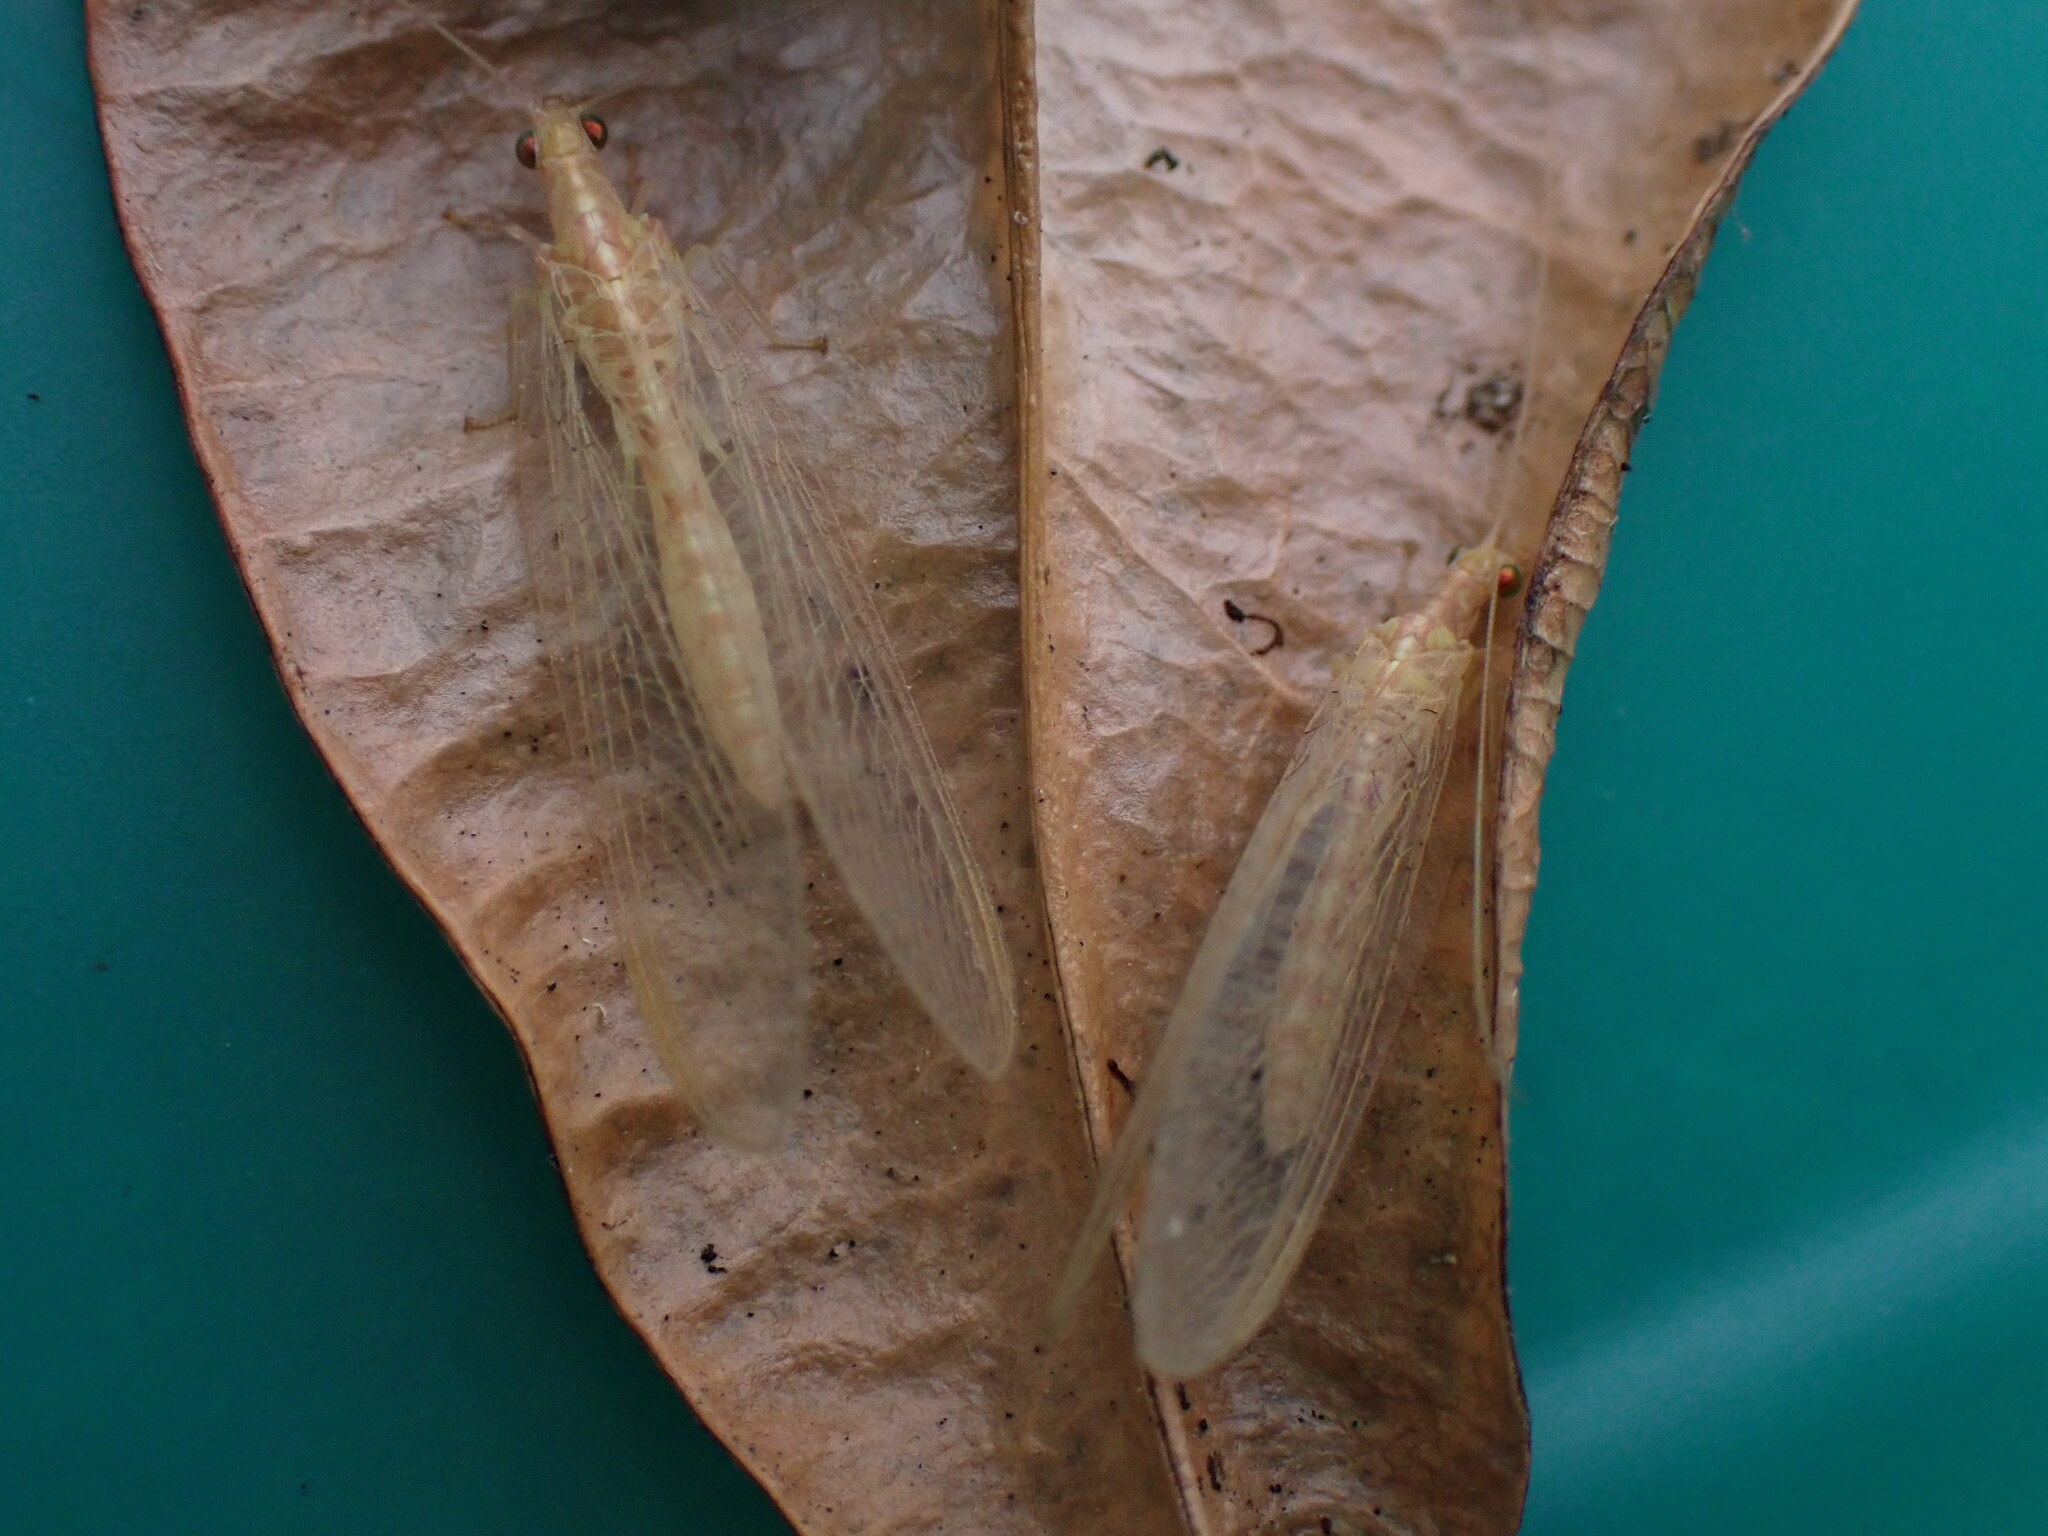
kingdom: Animalia
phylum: Arthropoda
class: Insecta
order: Neuroptera
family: Chrysopidae
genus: Chrysoperla
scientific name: Chrysoperla
